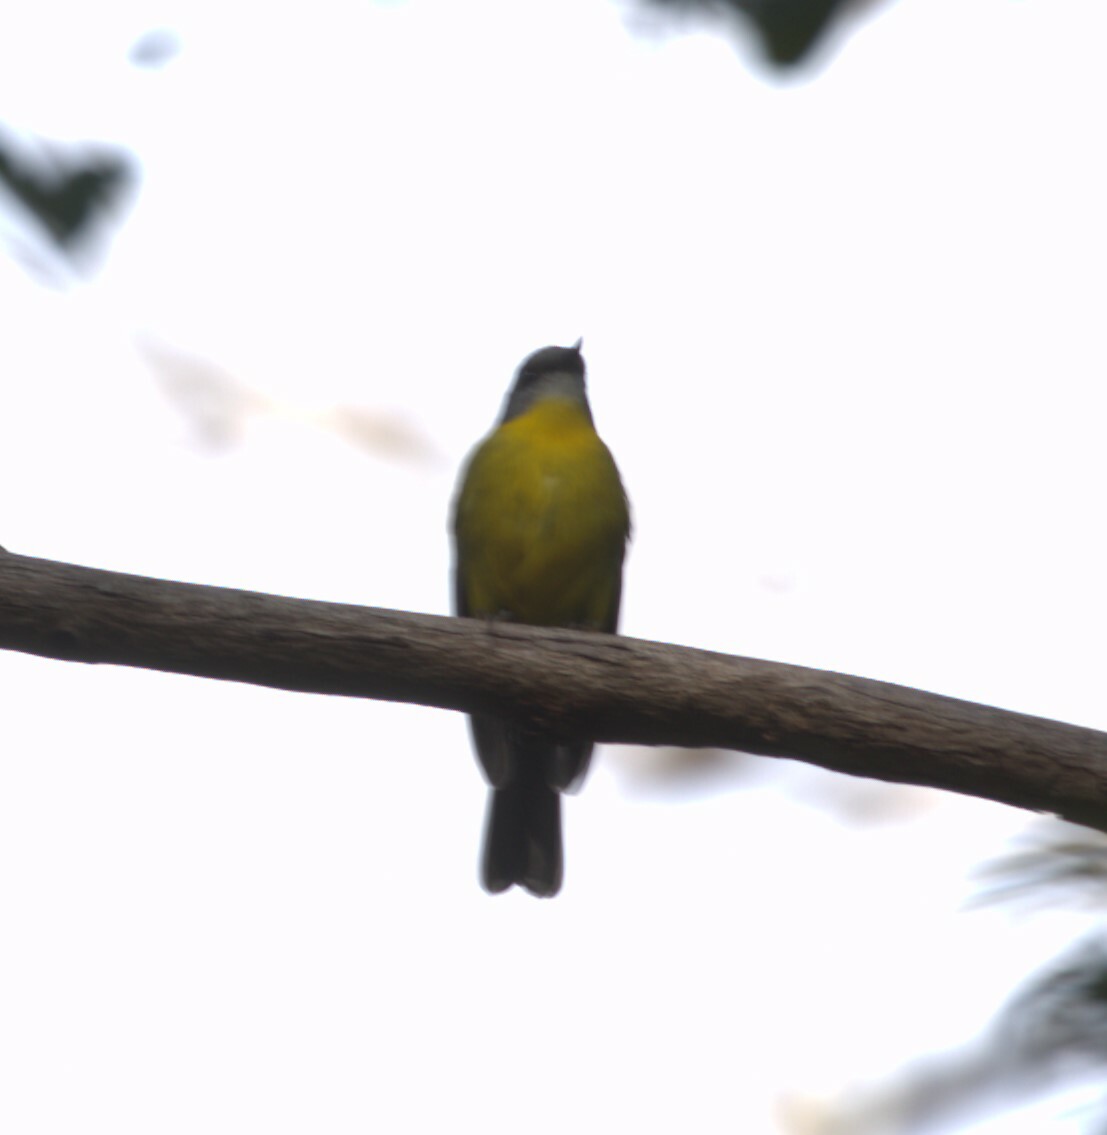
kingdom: Animalia
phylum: Chordata
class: Aves
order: Passeriformes
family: Petroicidae
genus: Eopsaltria
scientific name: Eopsaltria australis
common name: Eastern yellow robin
